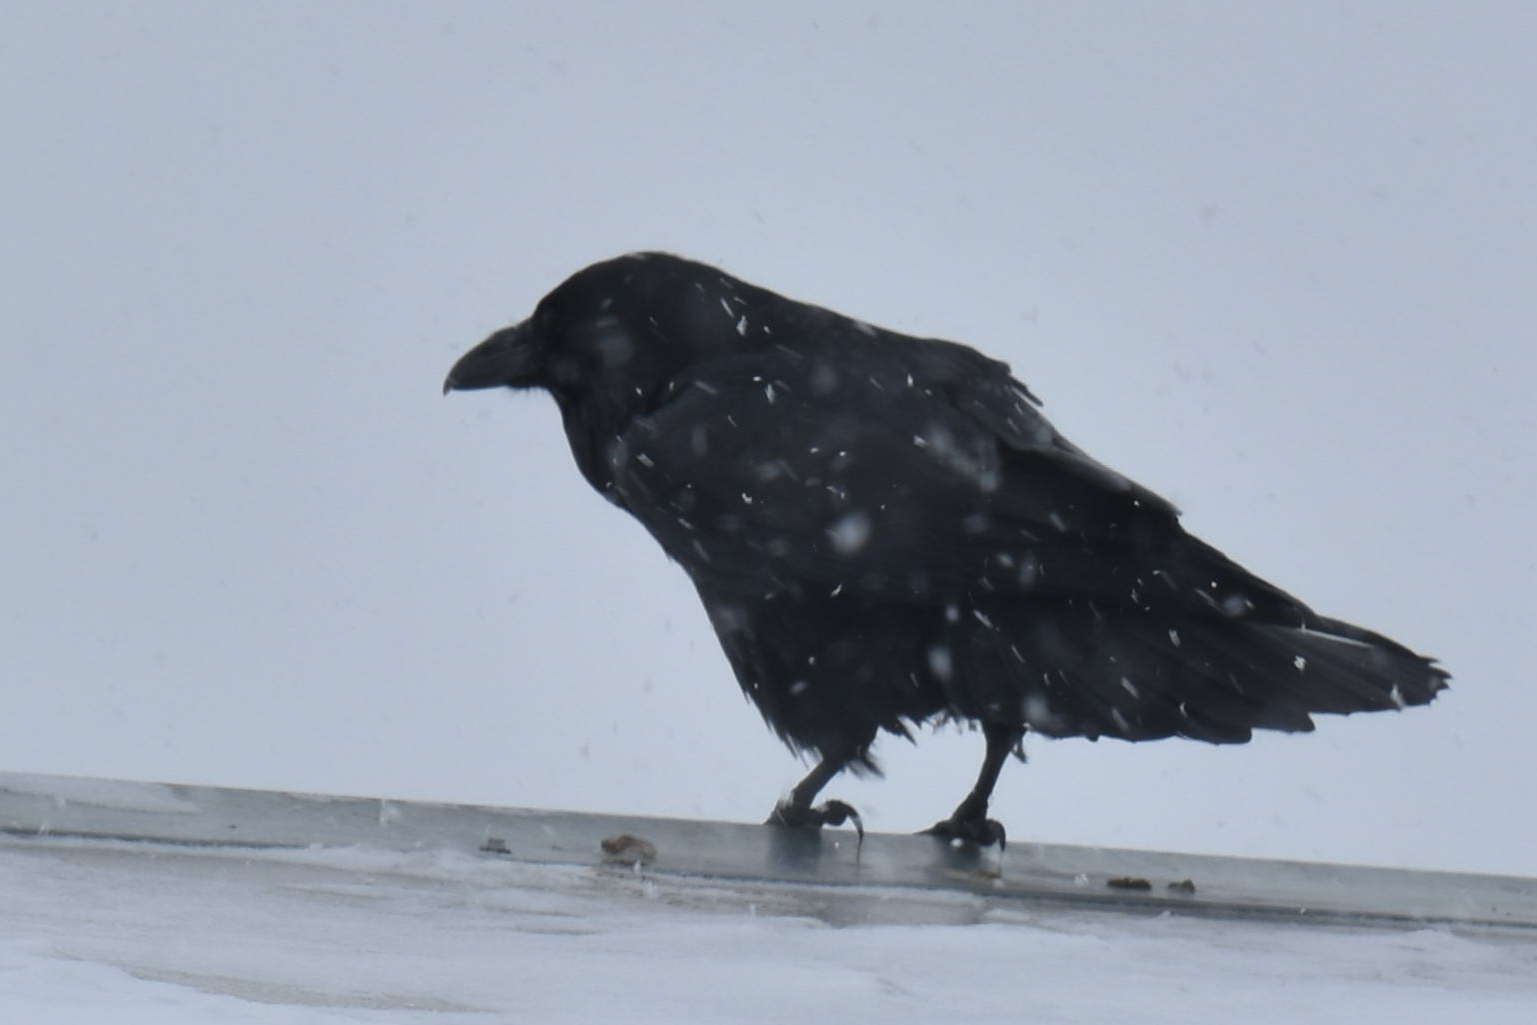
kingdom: Animalia
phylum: Chordata
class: Aves
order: Passeriformes
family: Corvidae
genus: Corvus
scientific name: Corvus corax
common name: Common raven
